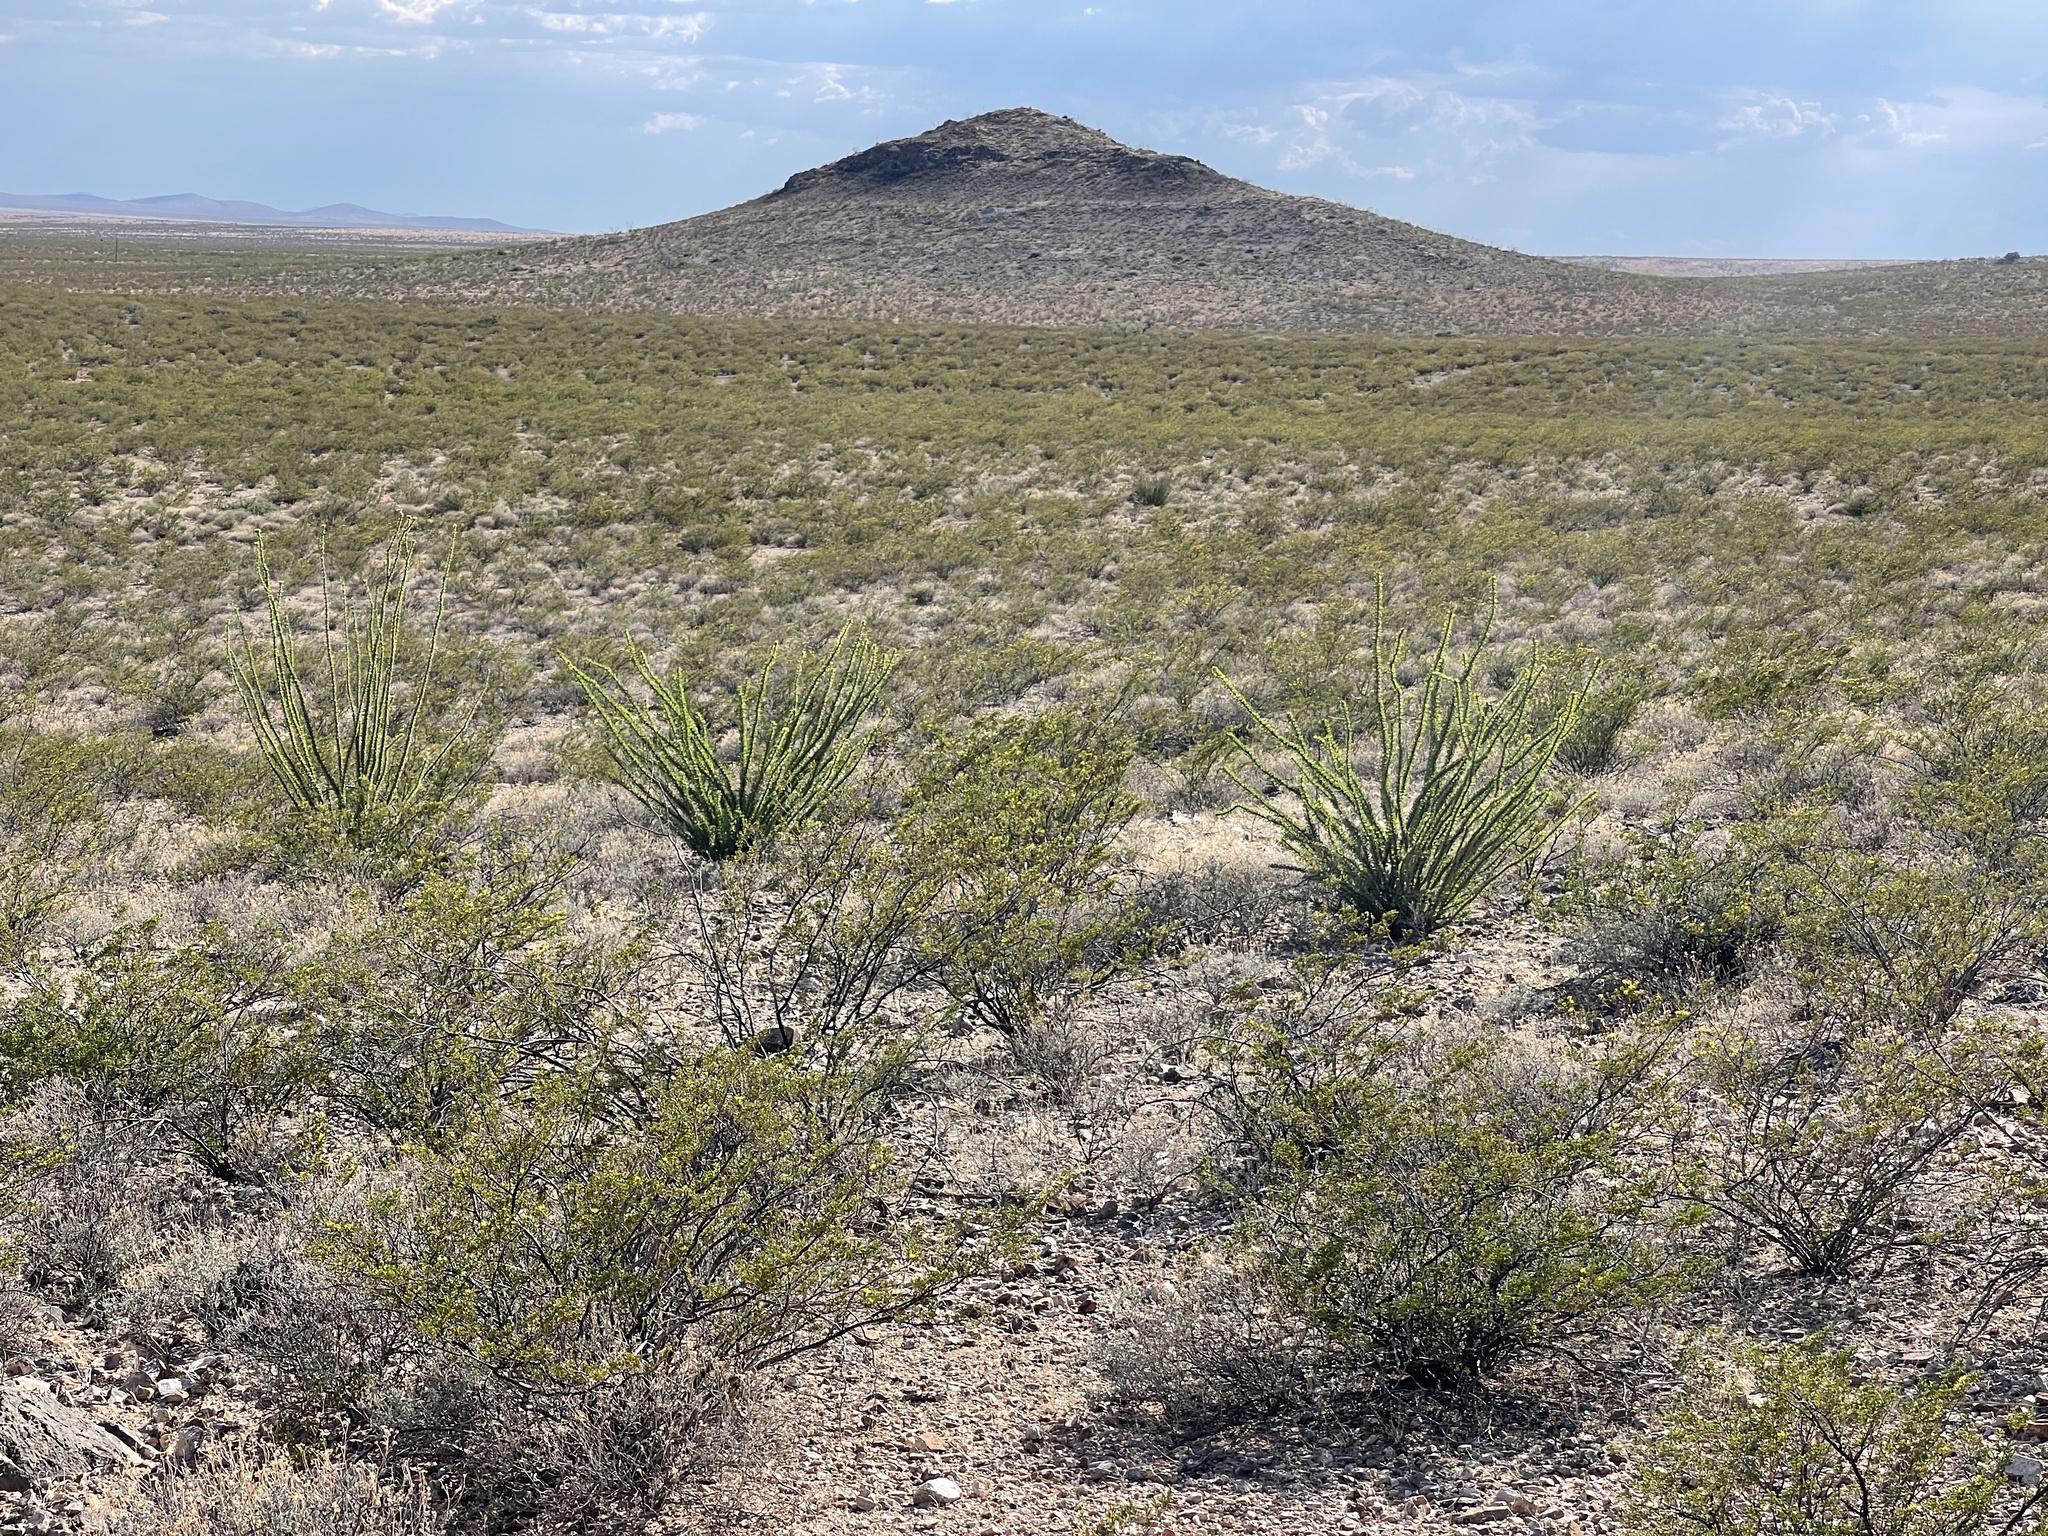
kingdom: Plantae
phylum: Tracheophyta
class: Magnoliopsida
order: Zygophyllales
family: Zygophyllaceae
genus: Larrea
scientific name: Larrea tridentata
